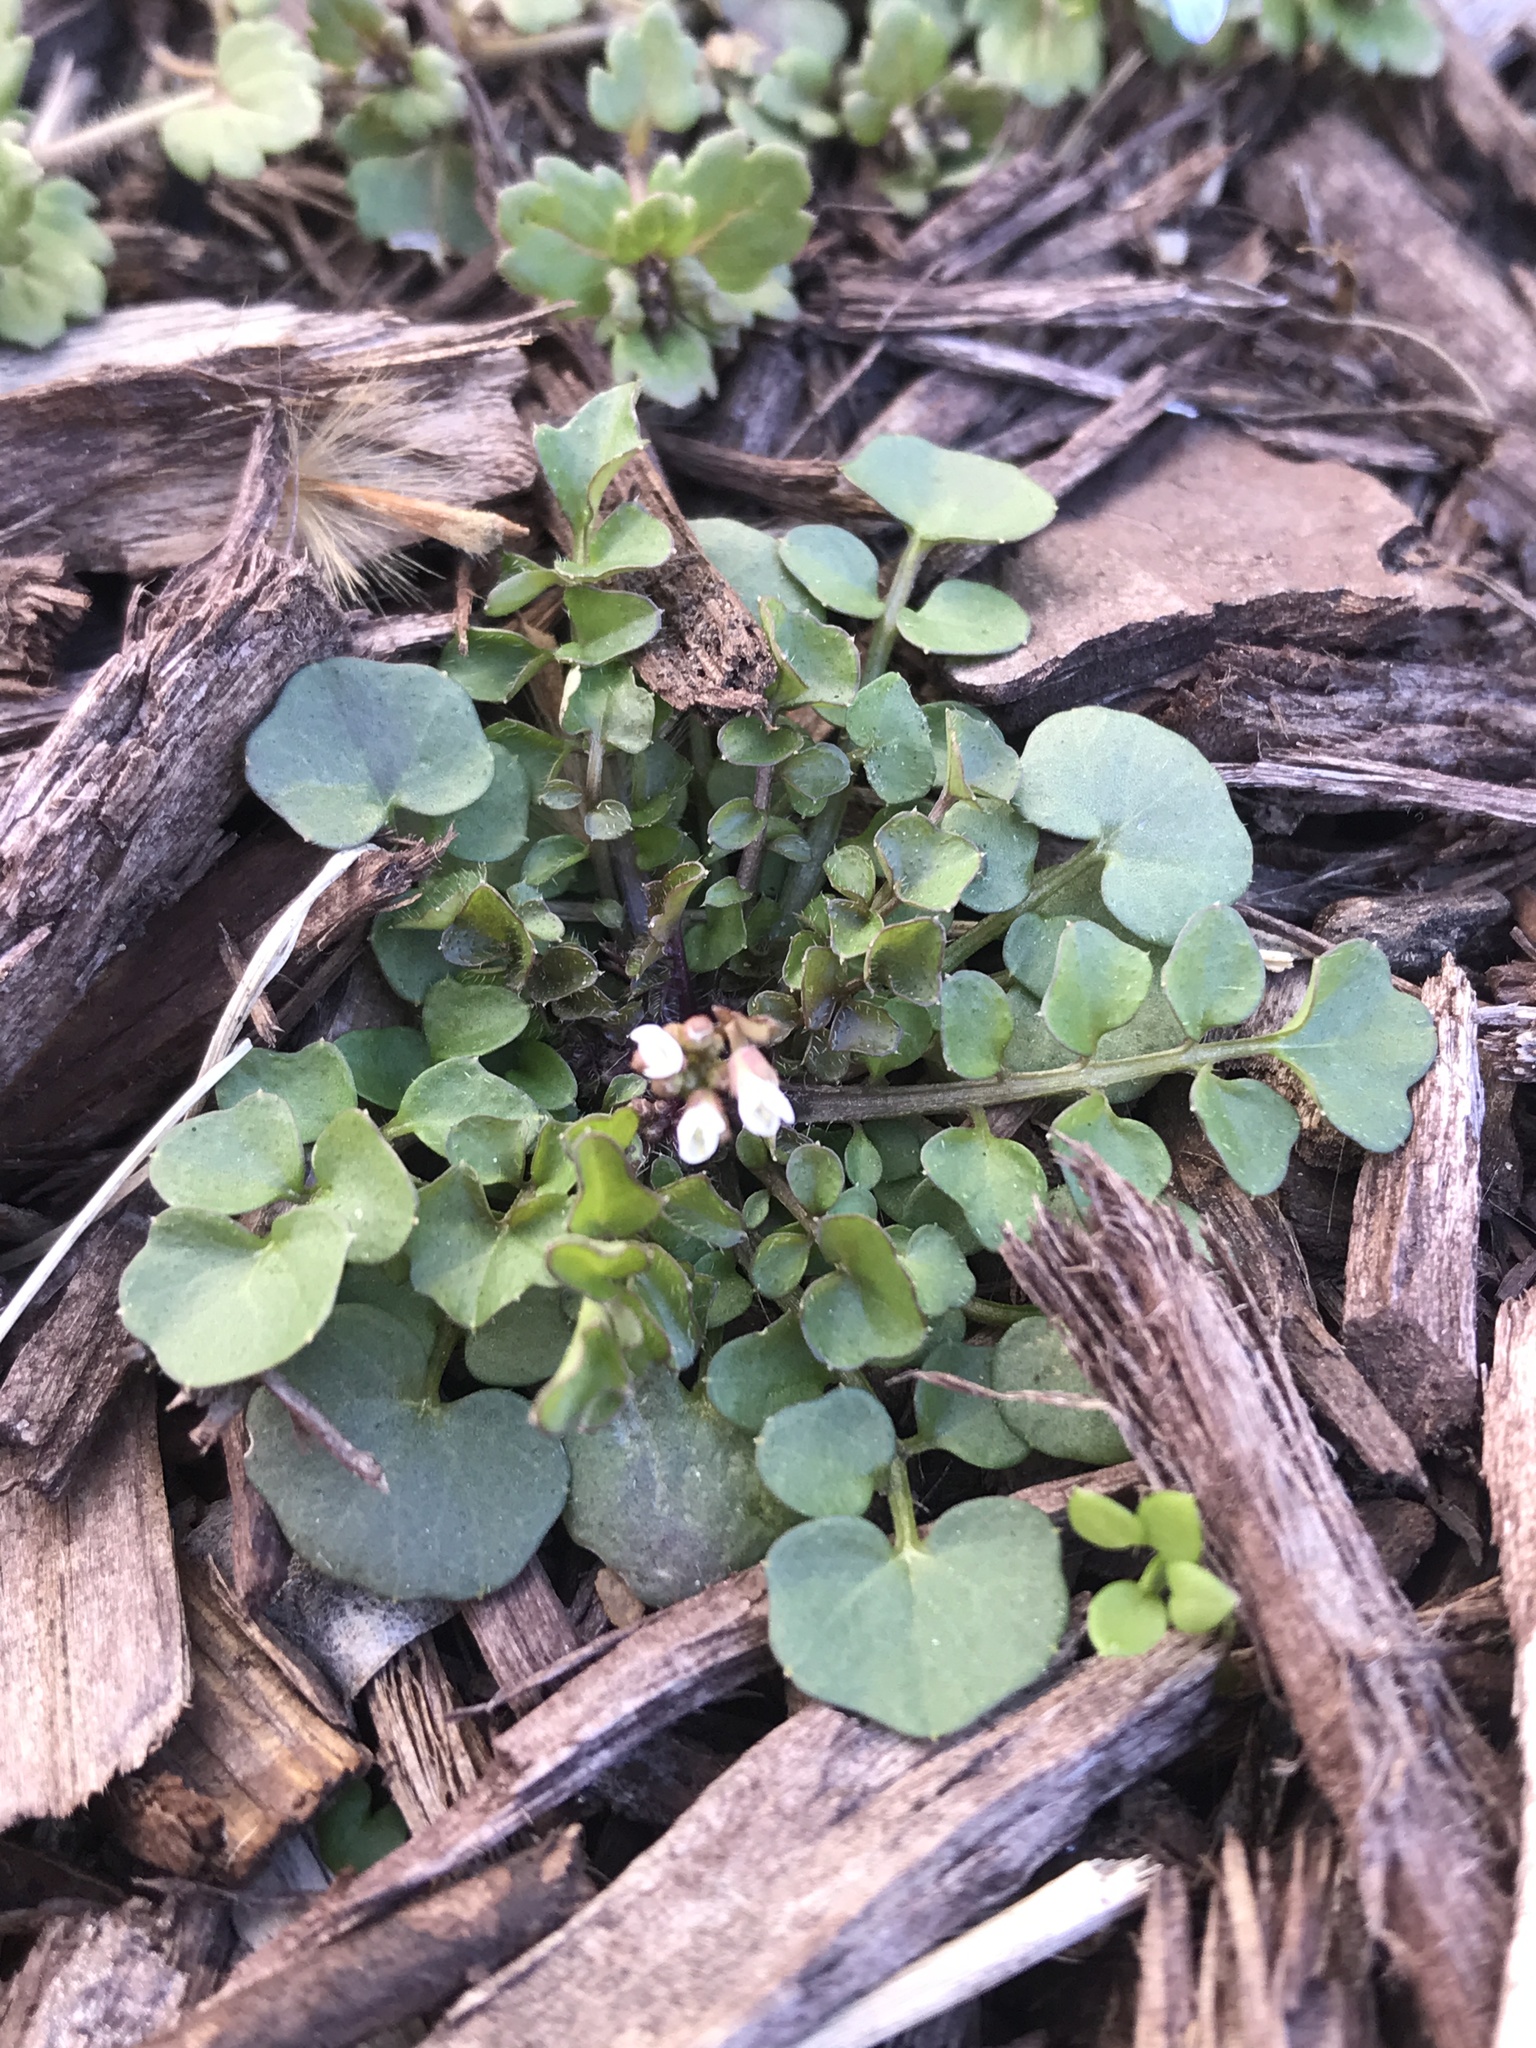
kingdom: Plantae
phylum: Tracheophyta
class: Magnoliopsida
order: Brassicales
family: Brassicaceae
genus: Cardamine
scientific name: Cardamine hirsuta
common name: Hairy bittercress
